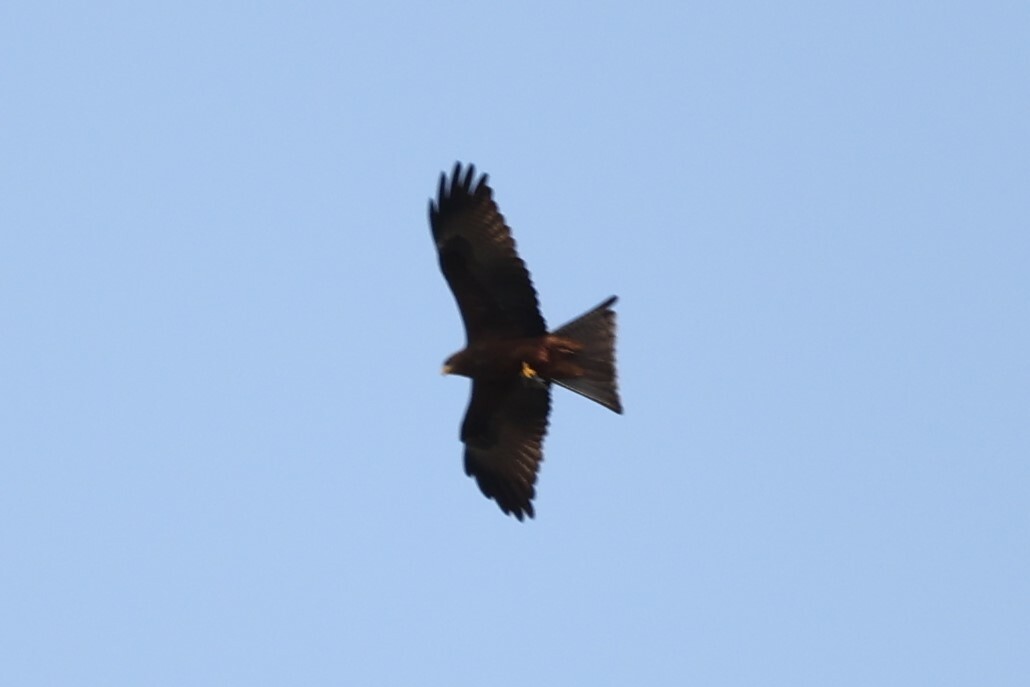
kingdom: Animalia
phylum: Chordata
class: Aves
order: Accipitriformes
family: Accipitridae
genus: Milvus
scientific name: Milvus migrans
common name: Black kite
